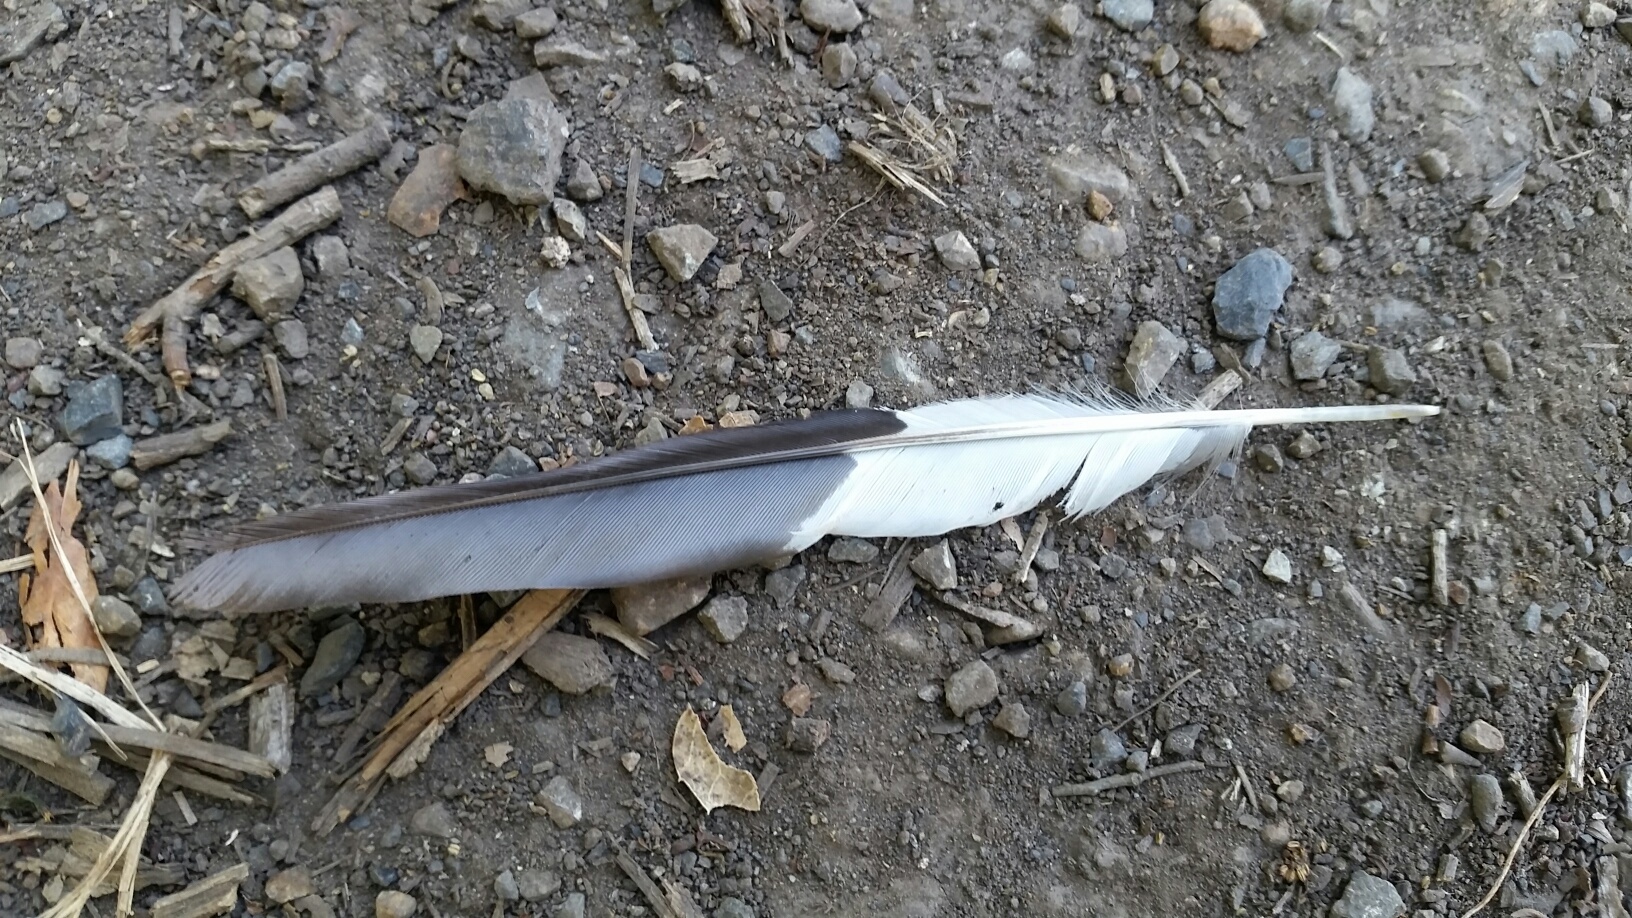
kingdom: Animalia
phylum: Chordata
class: Aves
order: Piciformes
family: Picidae
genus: Melanerpes
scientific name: Melanerpes formicivorus
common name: Acorn woodpecker
